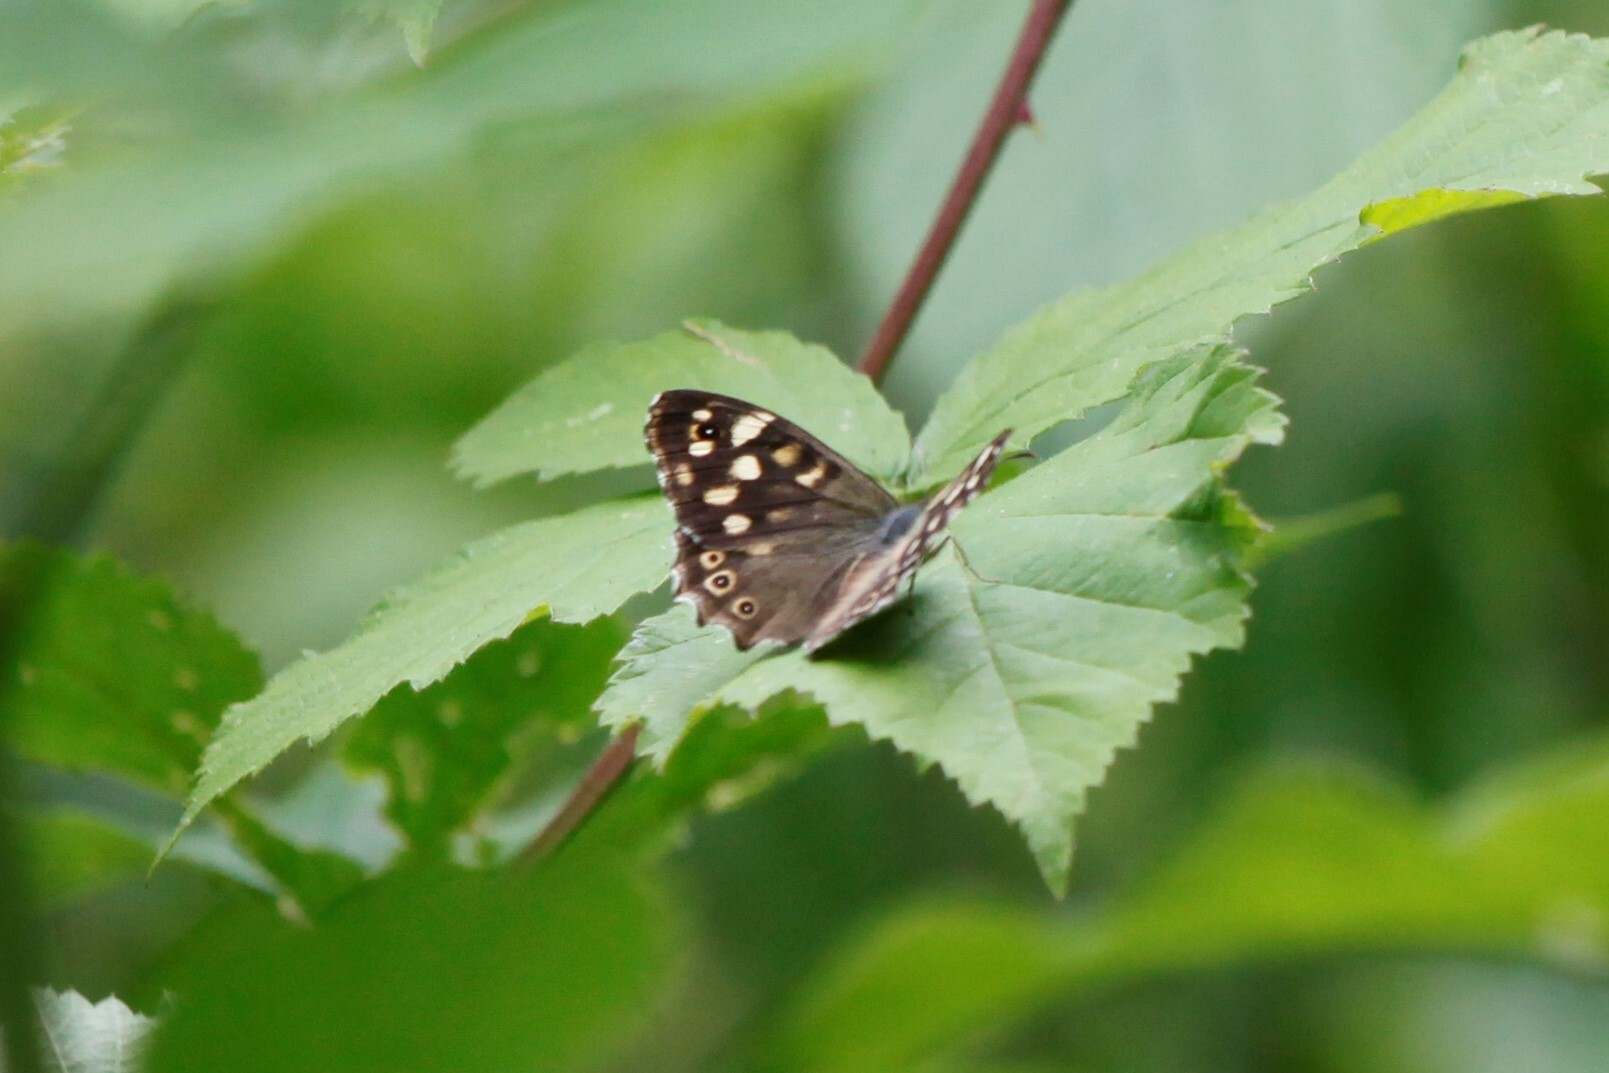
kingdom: Animalia
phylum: Arthropoda
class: Insecta
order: Lepidoptera
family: Nymphalidae
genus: Pararge
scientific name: Pararge aegeria
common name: Speckled wood
